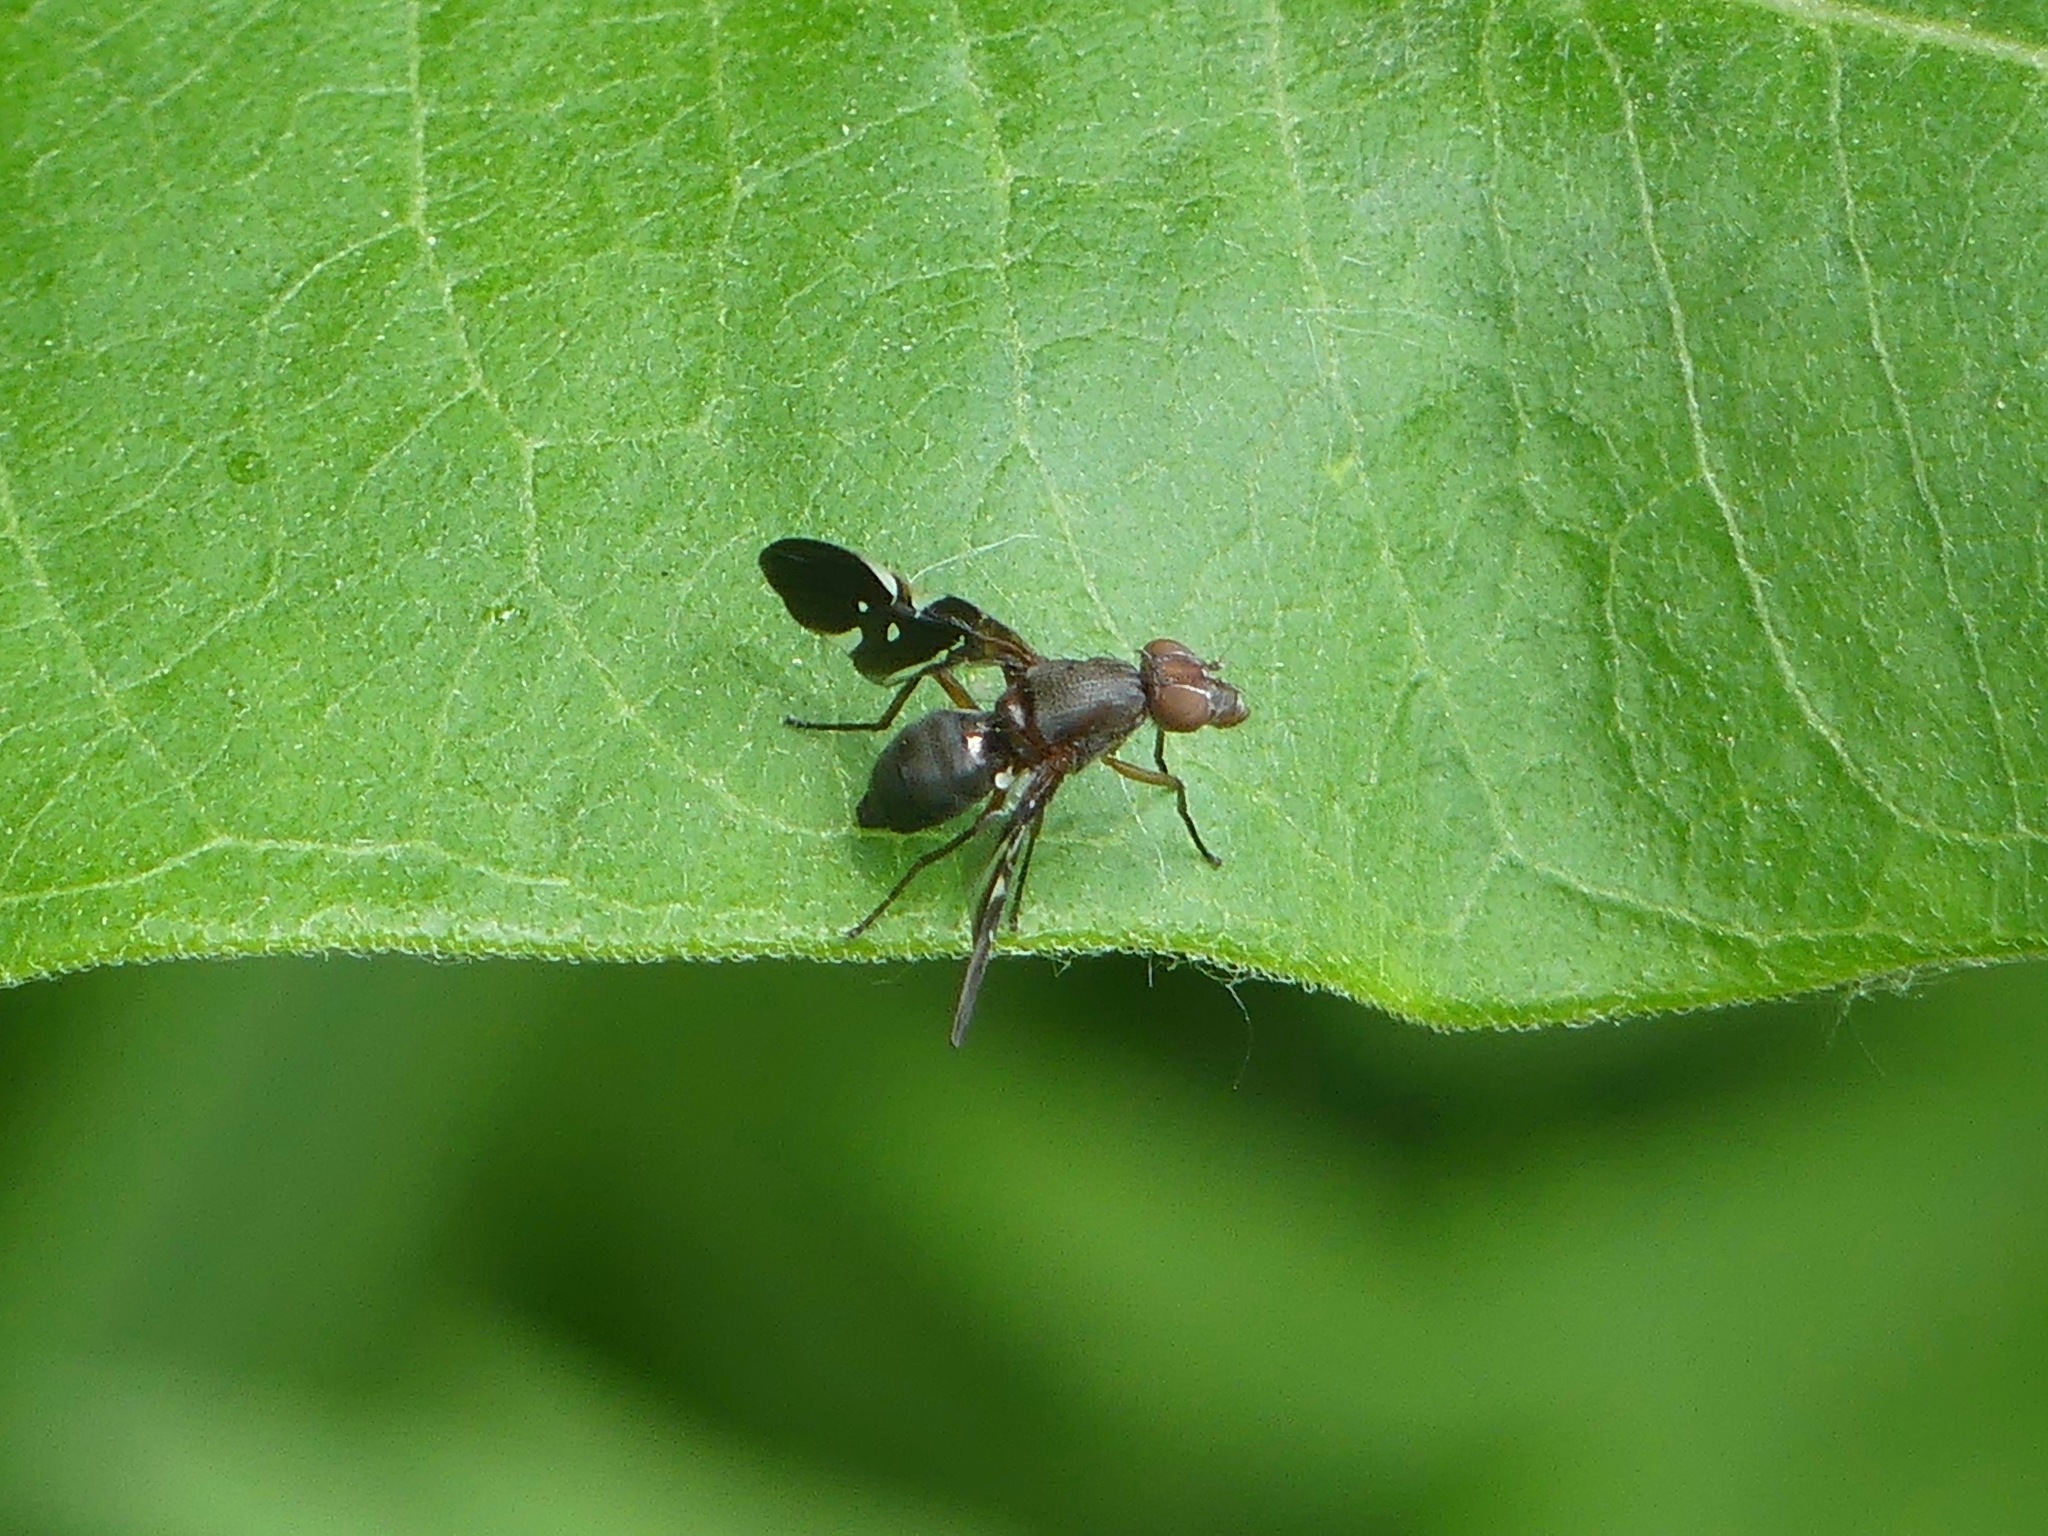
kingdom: Animalia
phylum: Arthropoda
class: Insecta
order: Diptera
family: Ulidiidae
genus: Delphinia
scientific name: Delphinia picta
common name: Common picture-winged fly
